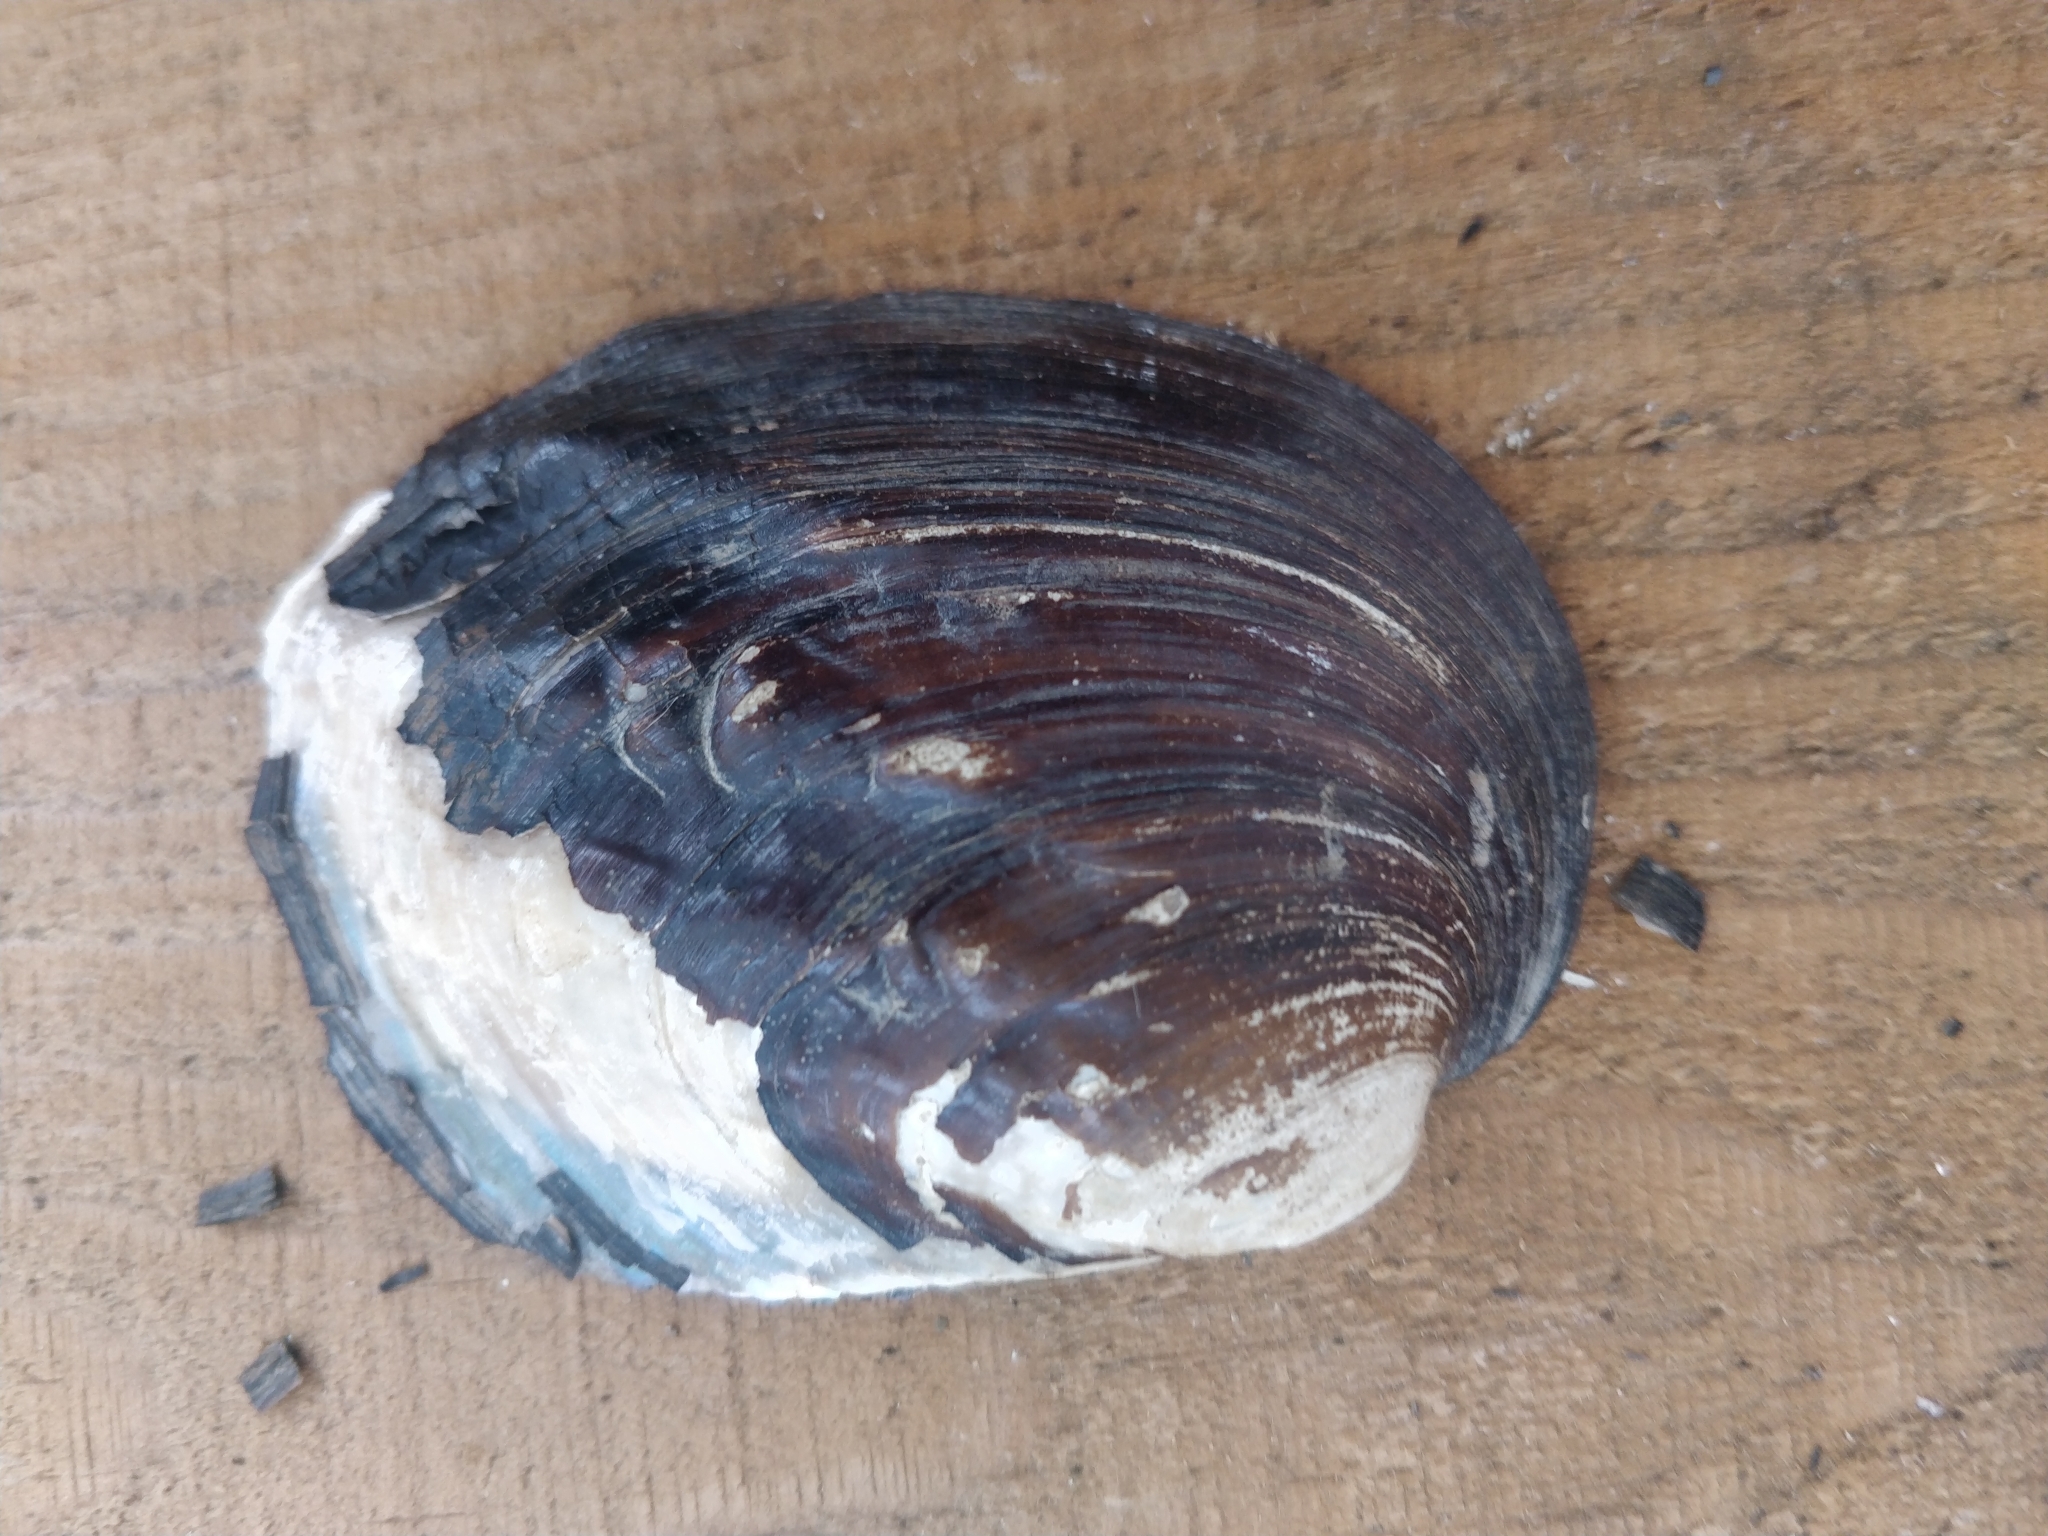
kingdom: Animalia
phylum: Mollusca
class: Bivalvia
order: Unionida
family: Unionidae
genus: Amblema
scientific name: Amblema plicata
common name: Threeridge
